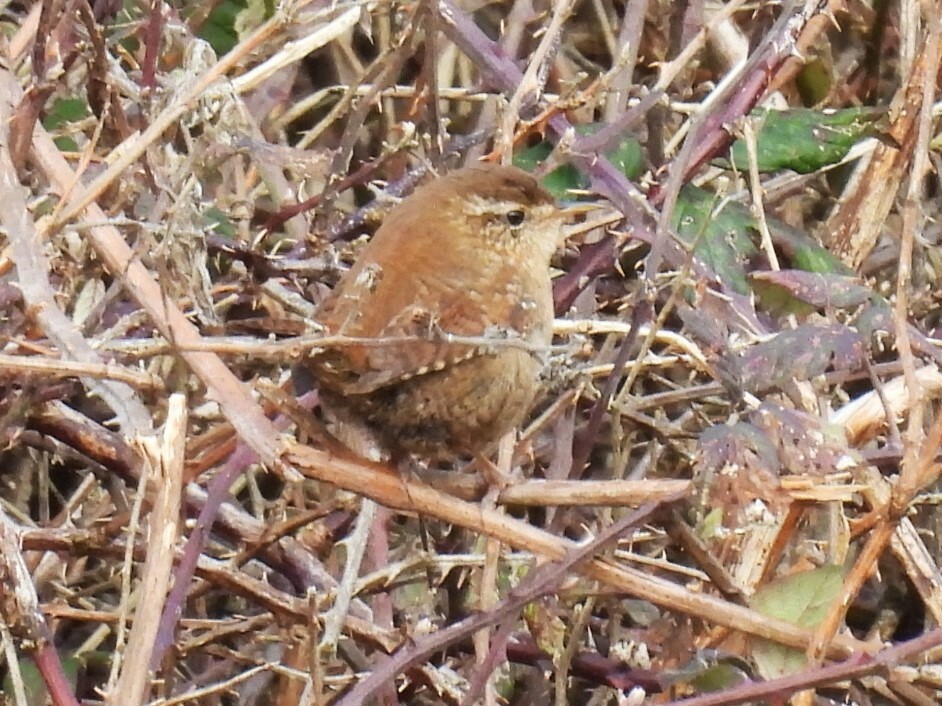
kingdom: Animalia
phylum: Chordata
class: Aves
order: Passeriformes
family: Troglodytidae
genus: Troglodytes
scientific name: Troglodytes troglodytes
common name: Eurasian wren
